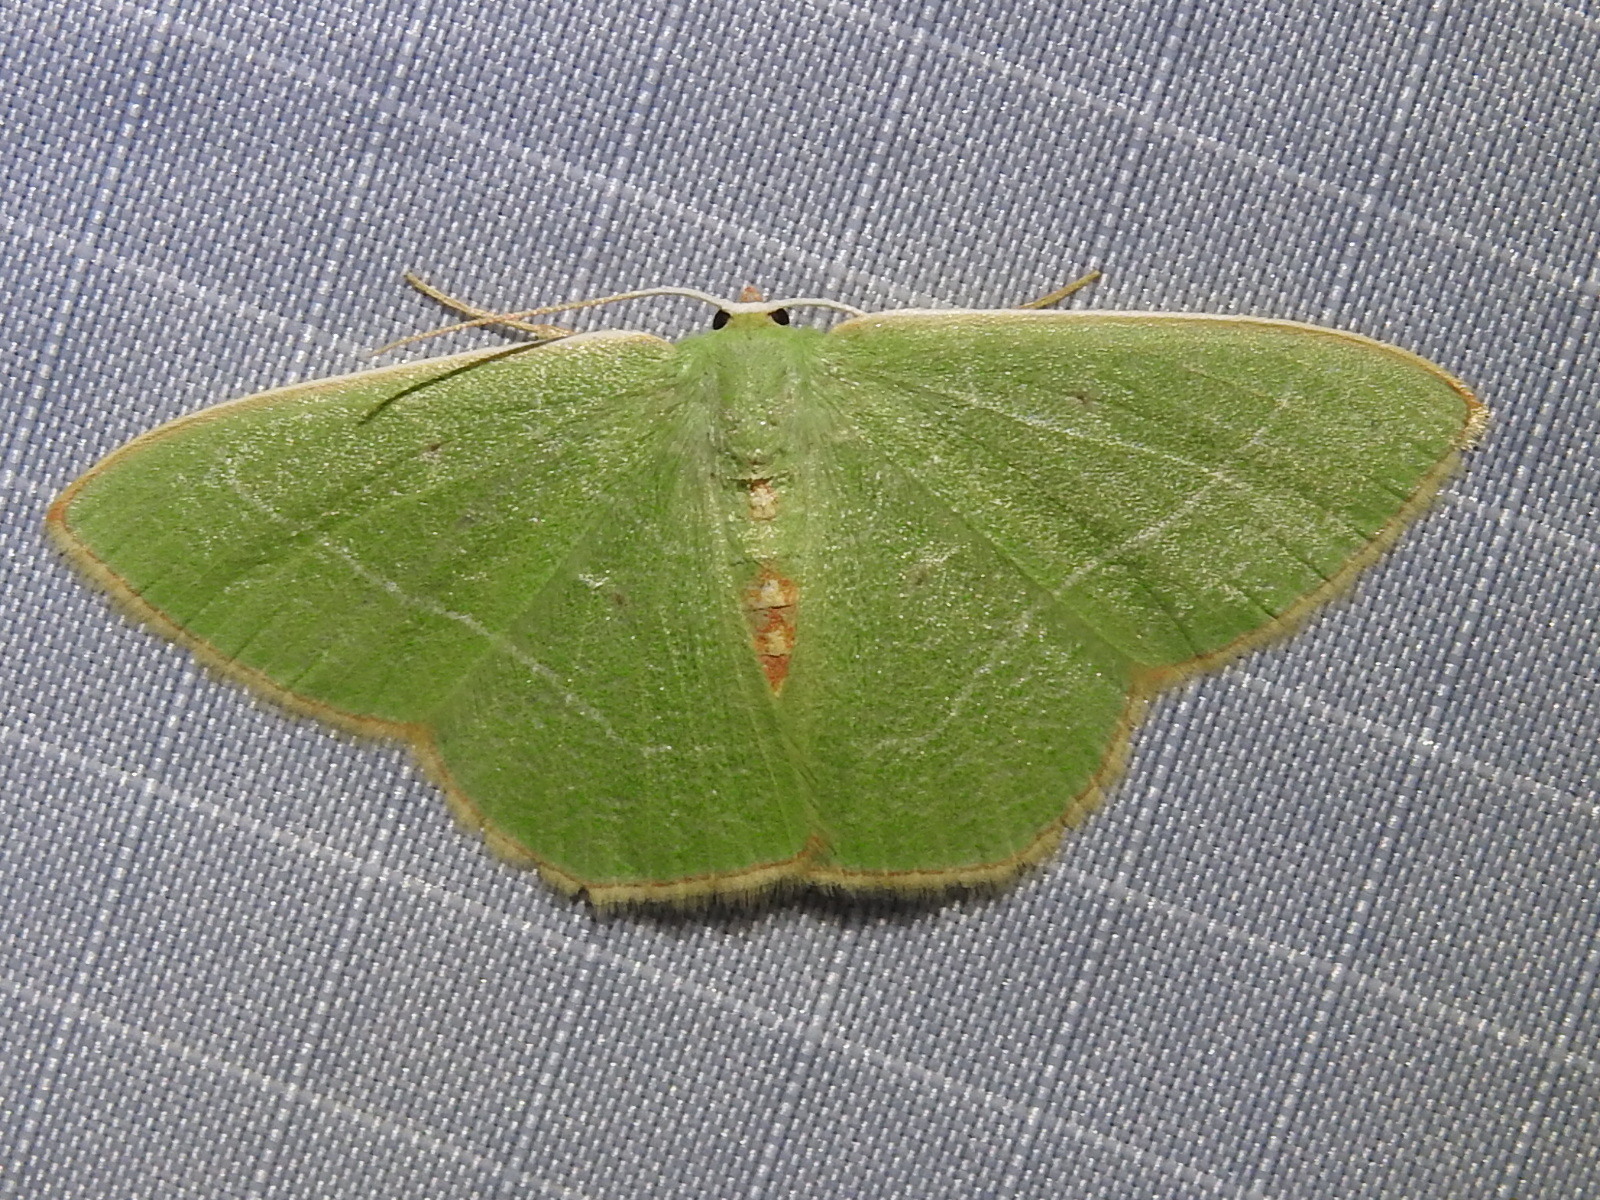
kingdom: Animalia
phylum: Arthropoda
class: Insecta
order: Lepidoptera
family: Geometridae
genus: Nemoria
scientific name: Nemoria bistriaria
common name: Red-fringed emerald
